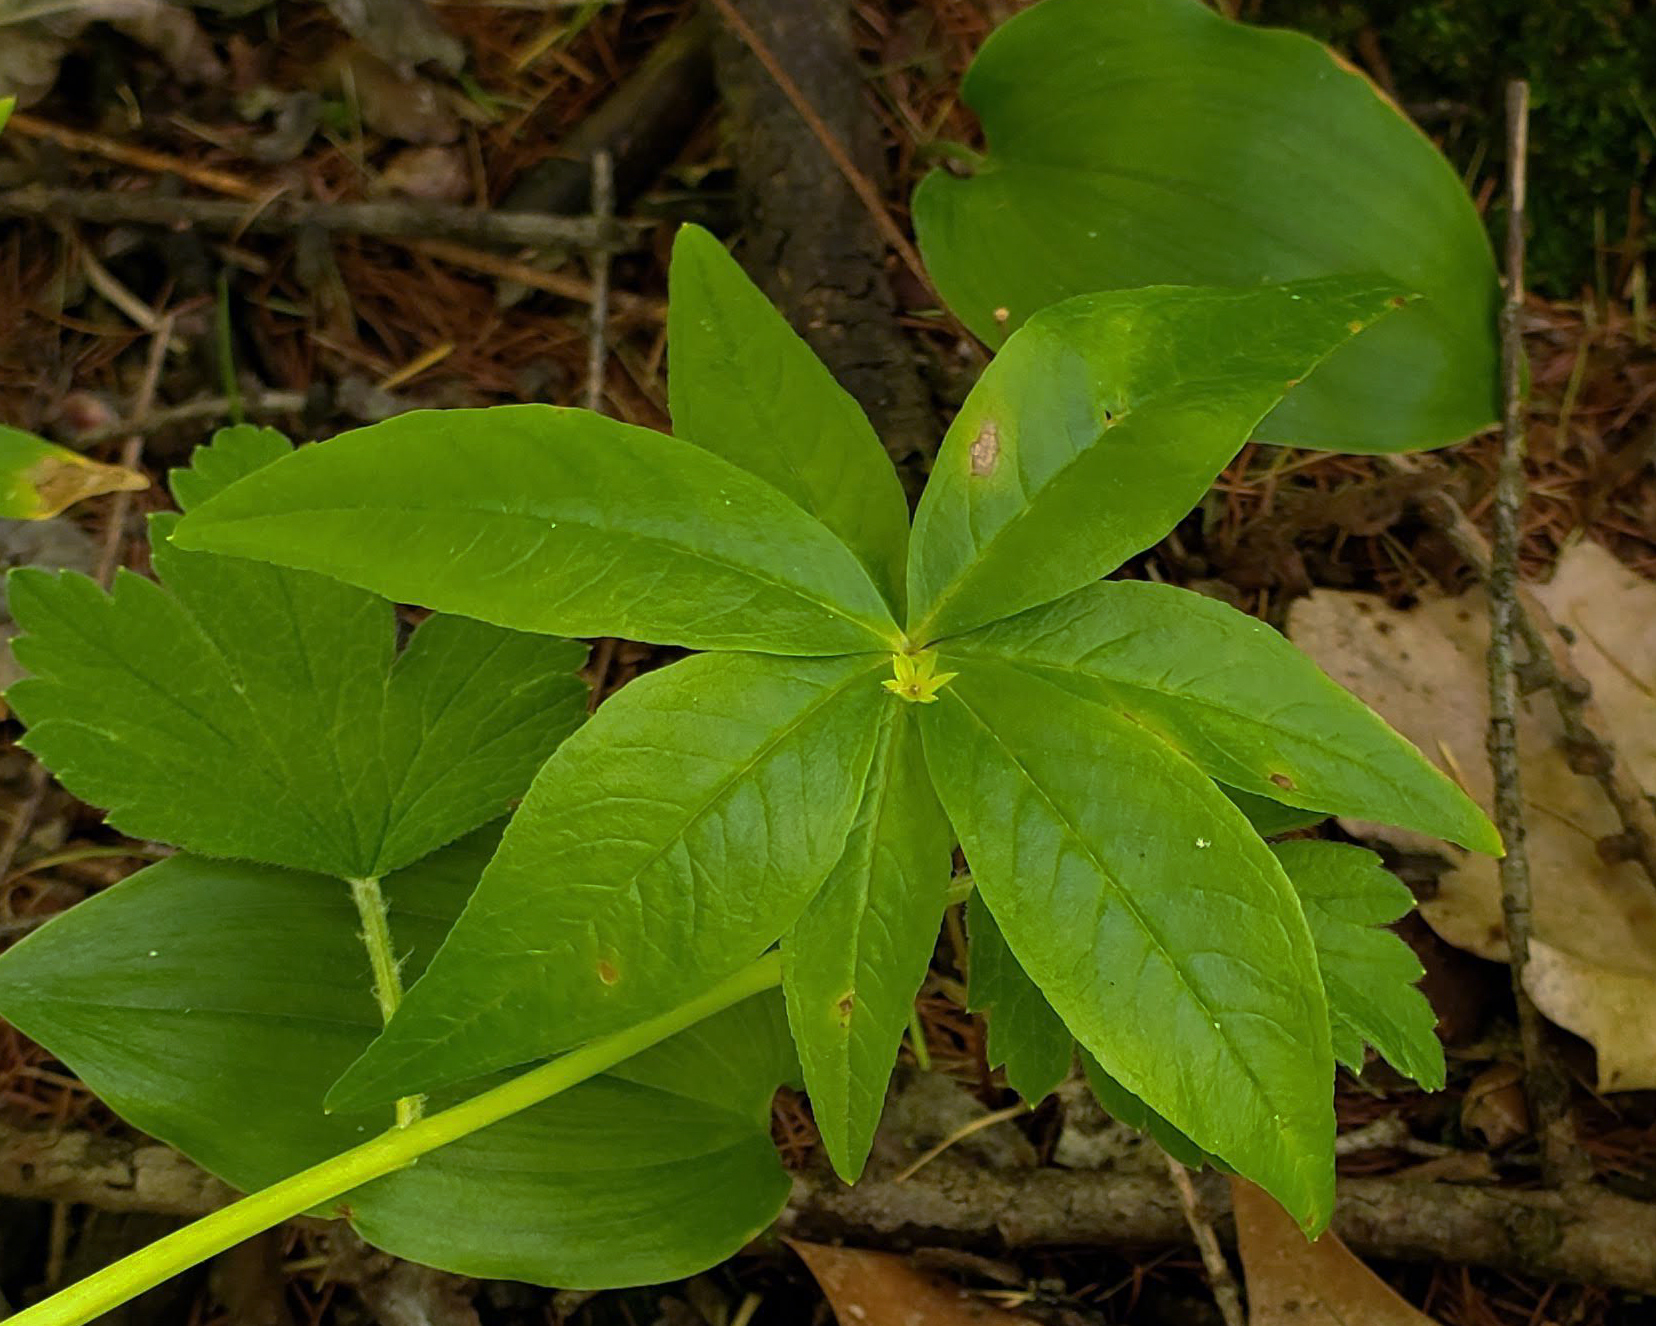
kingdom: Plantae
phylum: Tracheophyta
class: Magnoliopsida
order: Ericales
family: Primulaceae
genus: Lysimachia
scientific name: Lysimachia borealis
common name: American starflower
